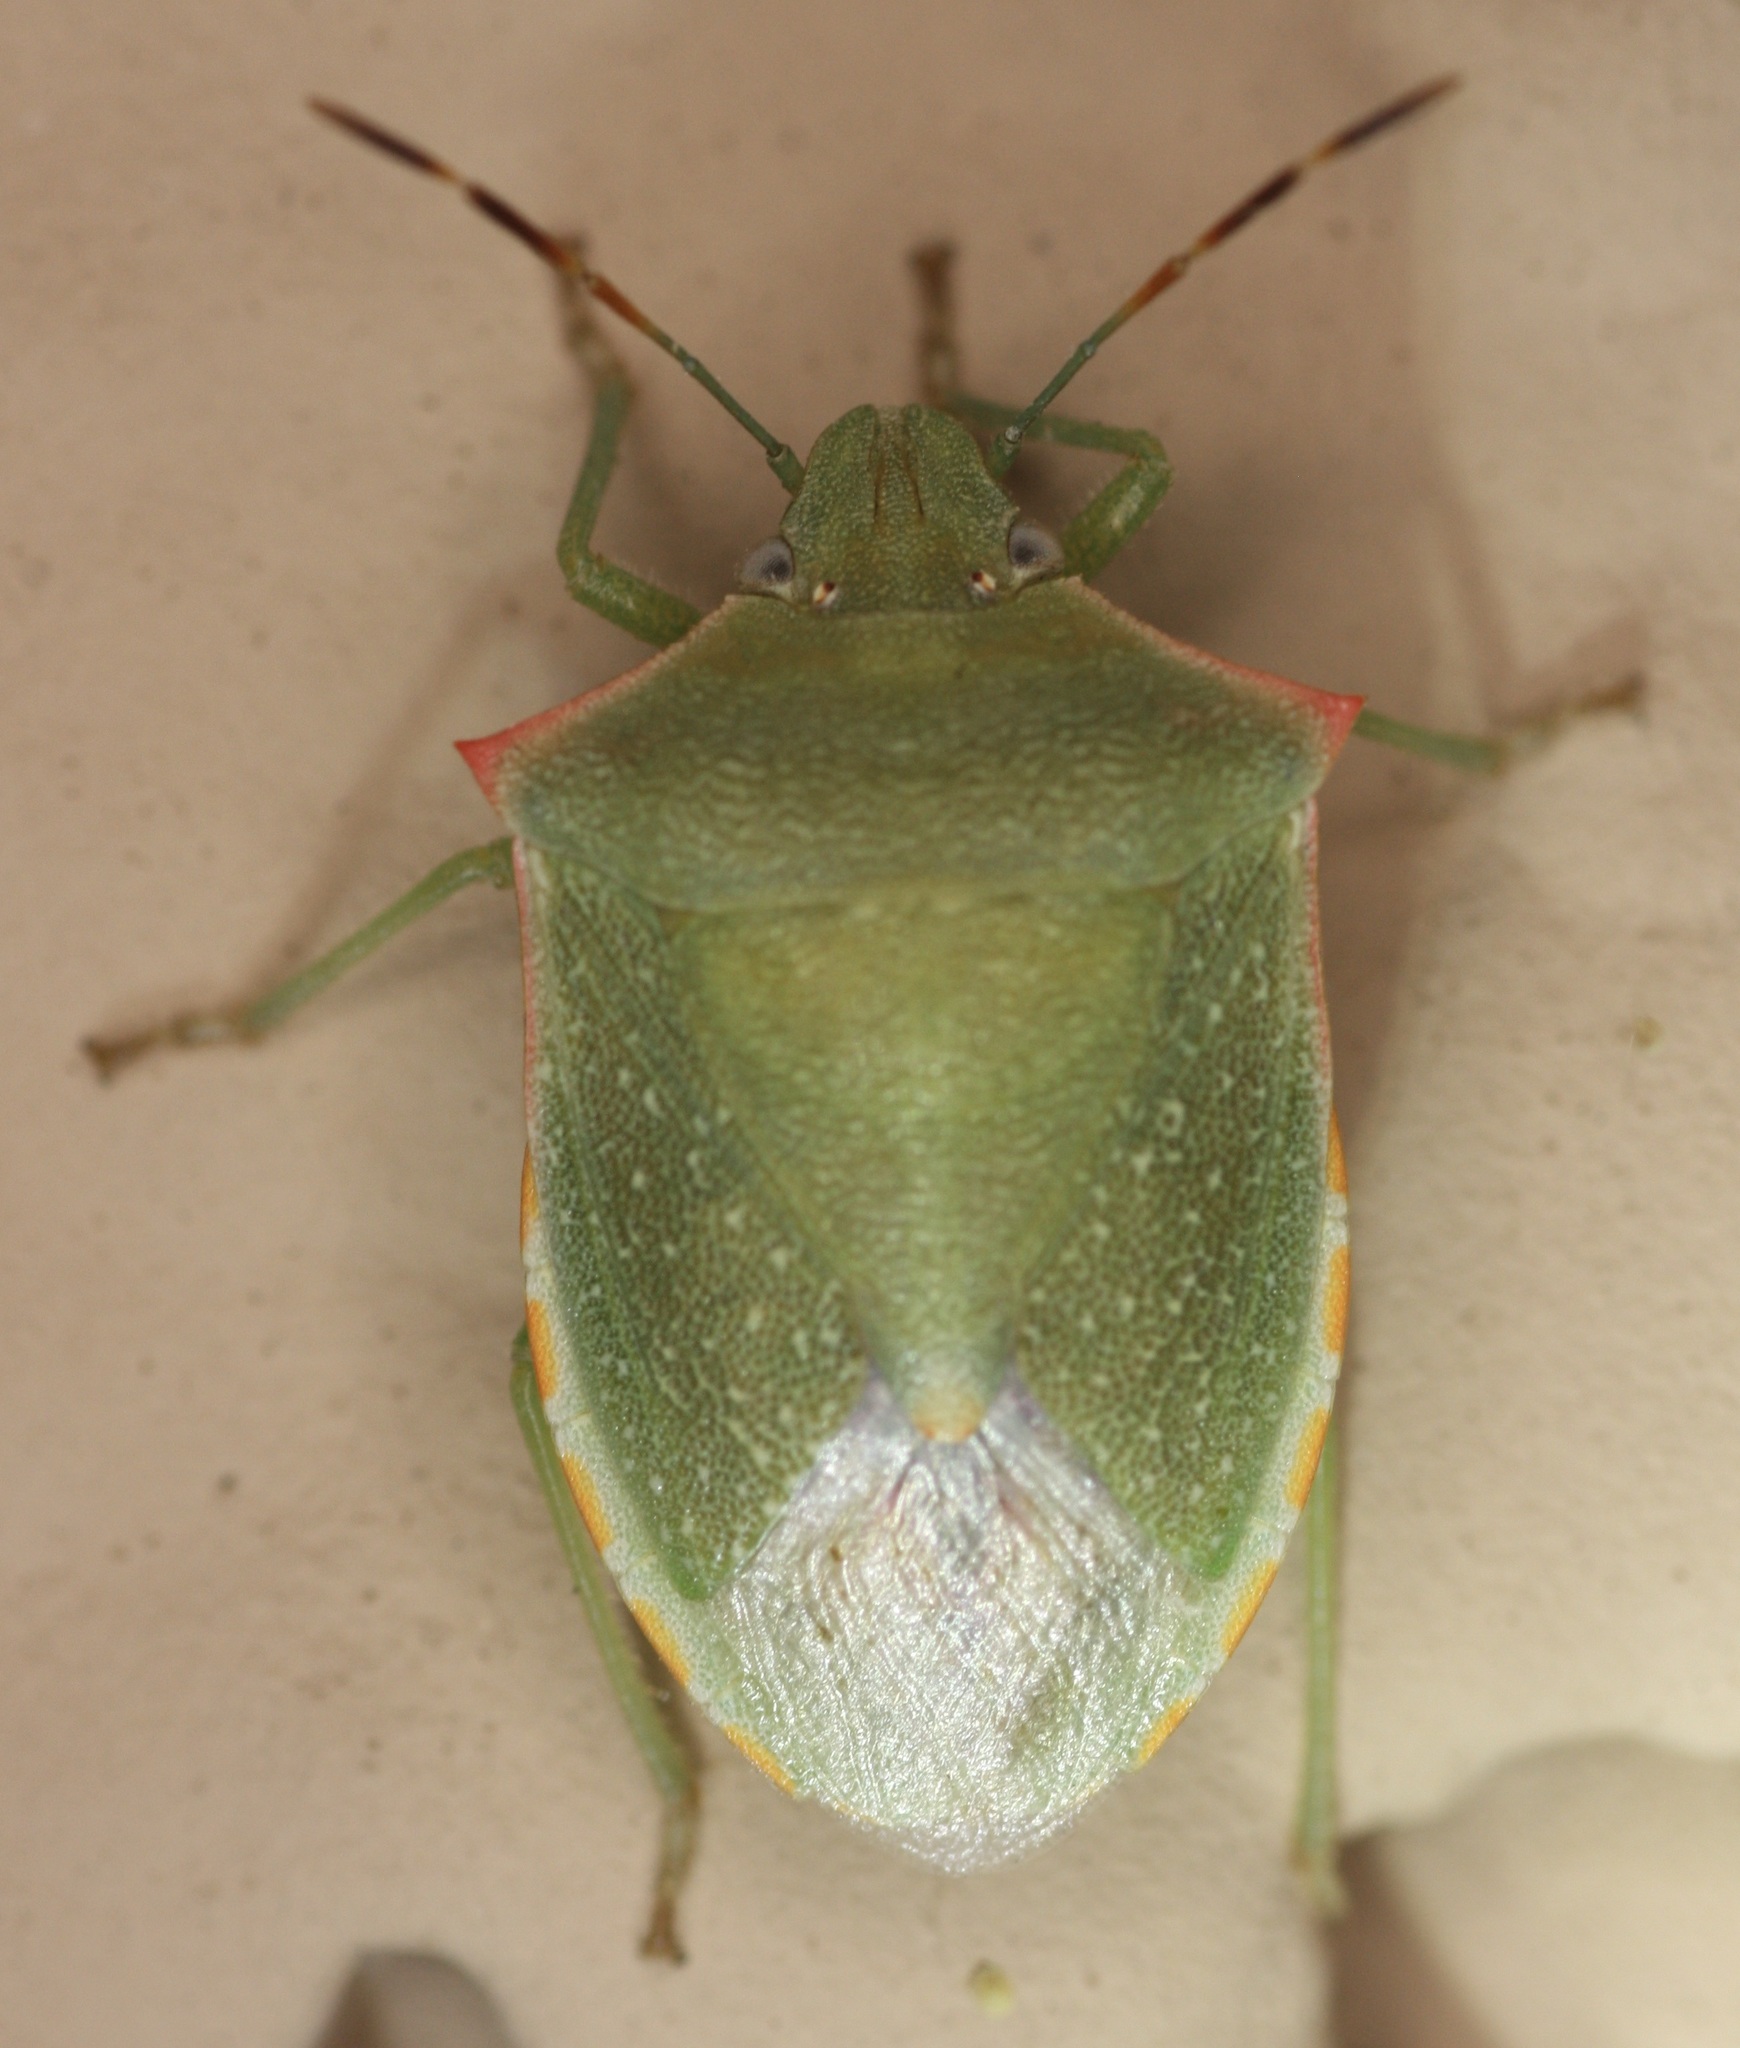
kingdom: Animalia
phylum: Arthropoda
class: Insecta
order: Hemiptera
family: Pentatomidae
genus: Thyanta
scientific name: Thyanta accerra
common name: Stink bug
